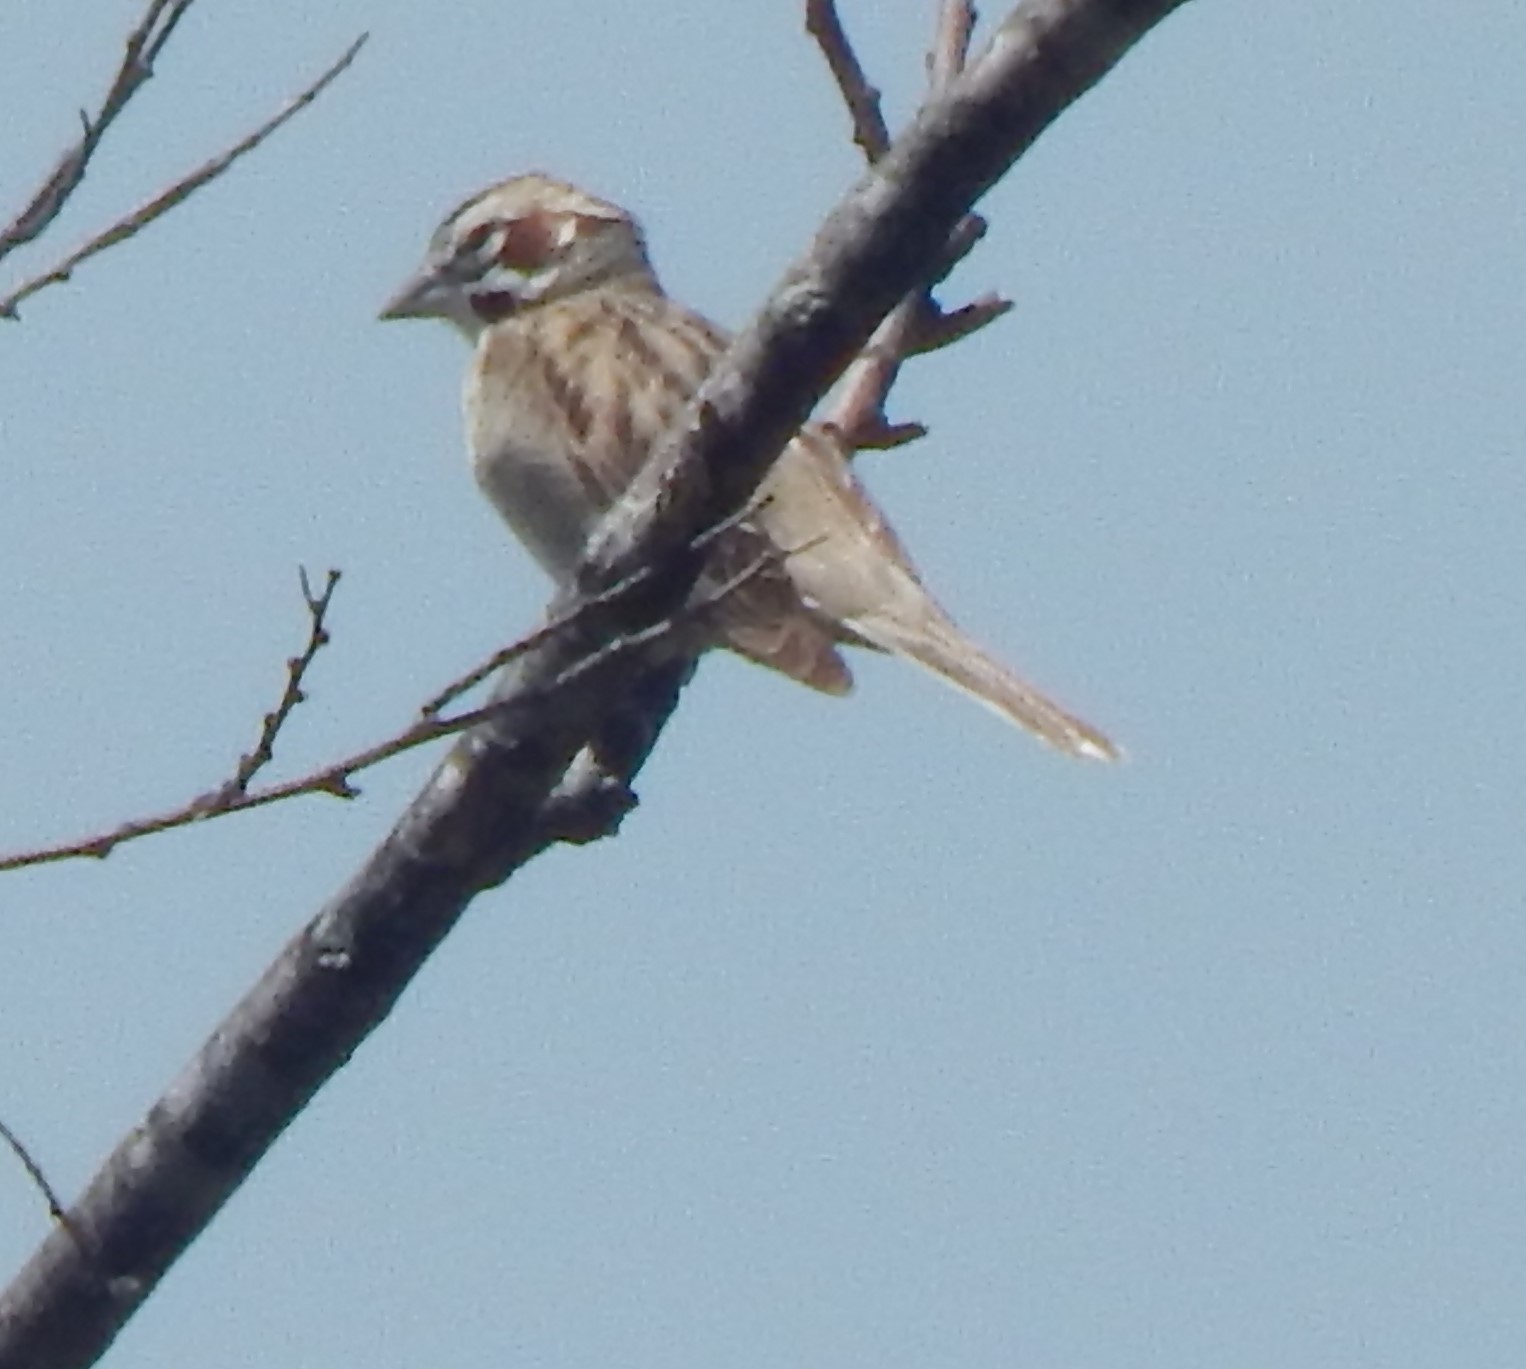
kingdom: Animalia
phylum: Chordata
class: Aves
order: Passeriformes
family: Passerellidae
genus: Chondestes
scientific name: Chondestes grammacus
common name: Lark sparrow
